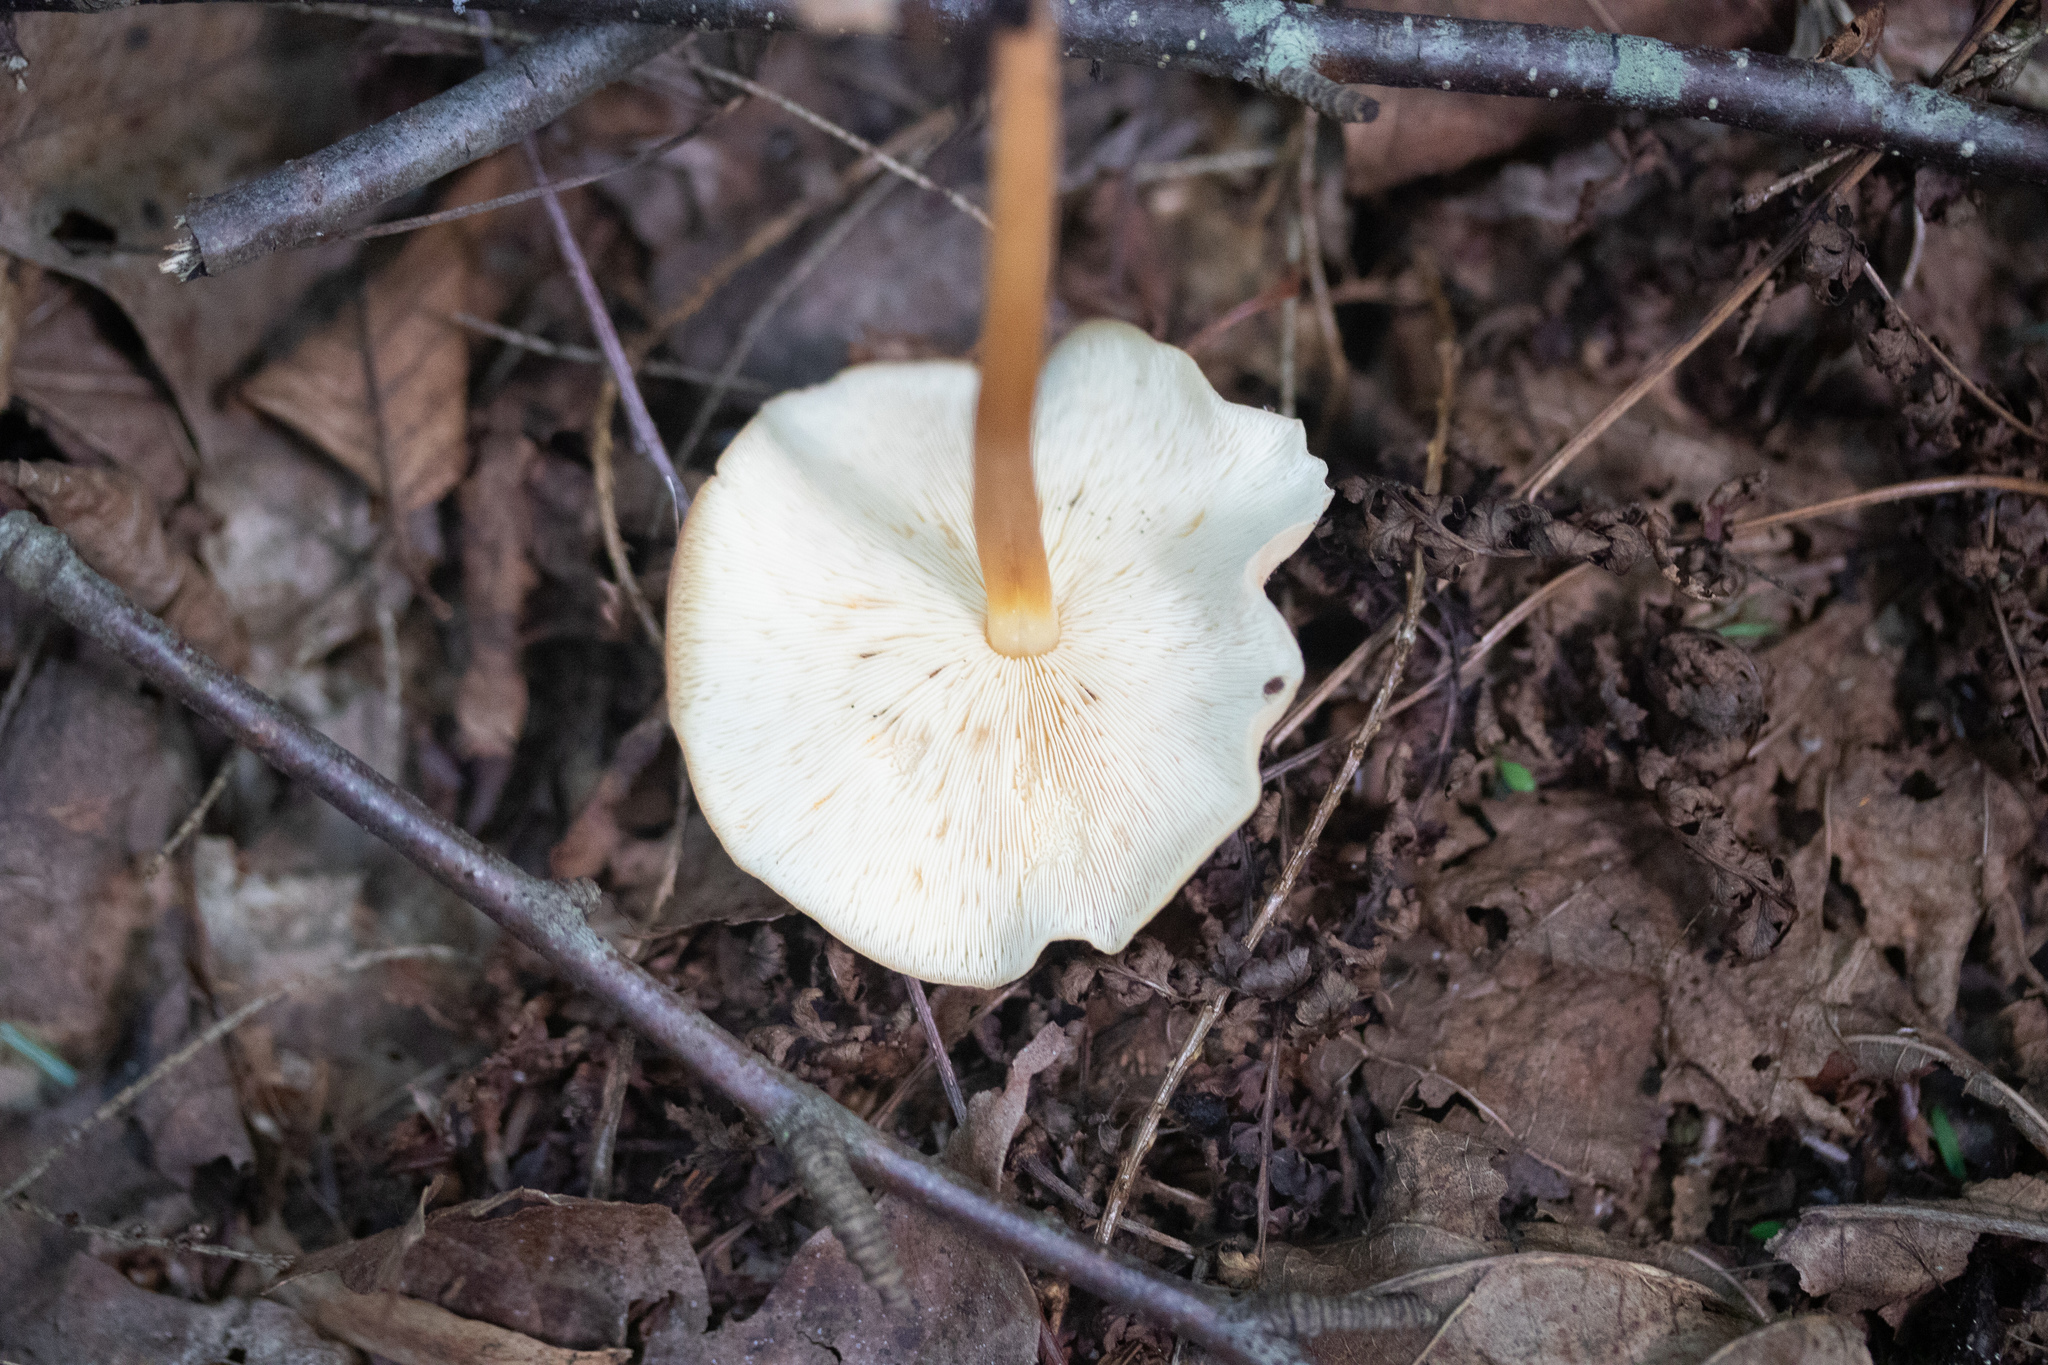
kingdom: Fungi
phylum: Basidiomycota
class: Agaricomycetes
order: Agaricales
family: Omphalotaceae
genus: Gymnopus
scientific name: Gymnopus dryophilus
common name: Penny top
